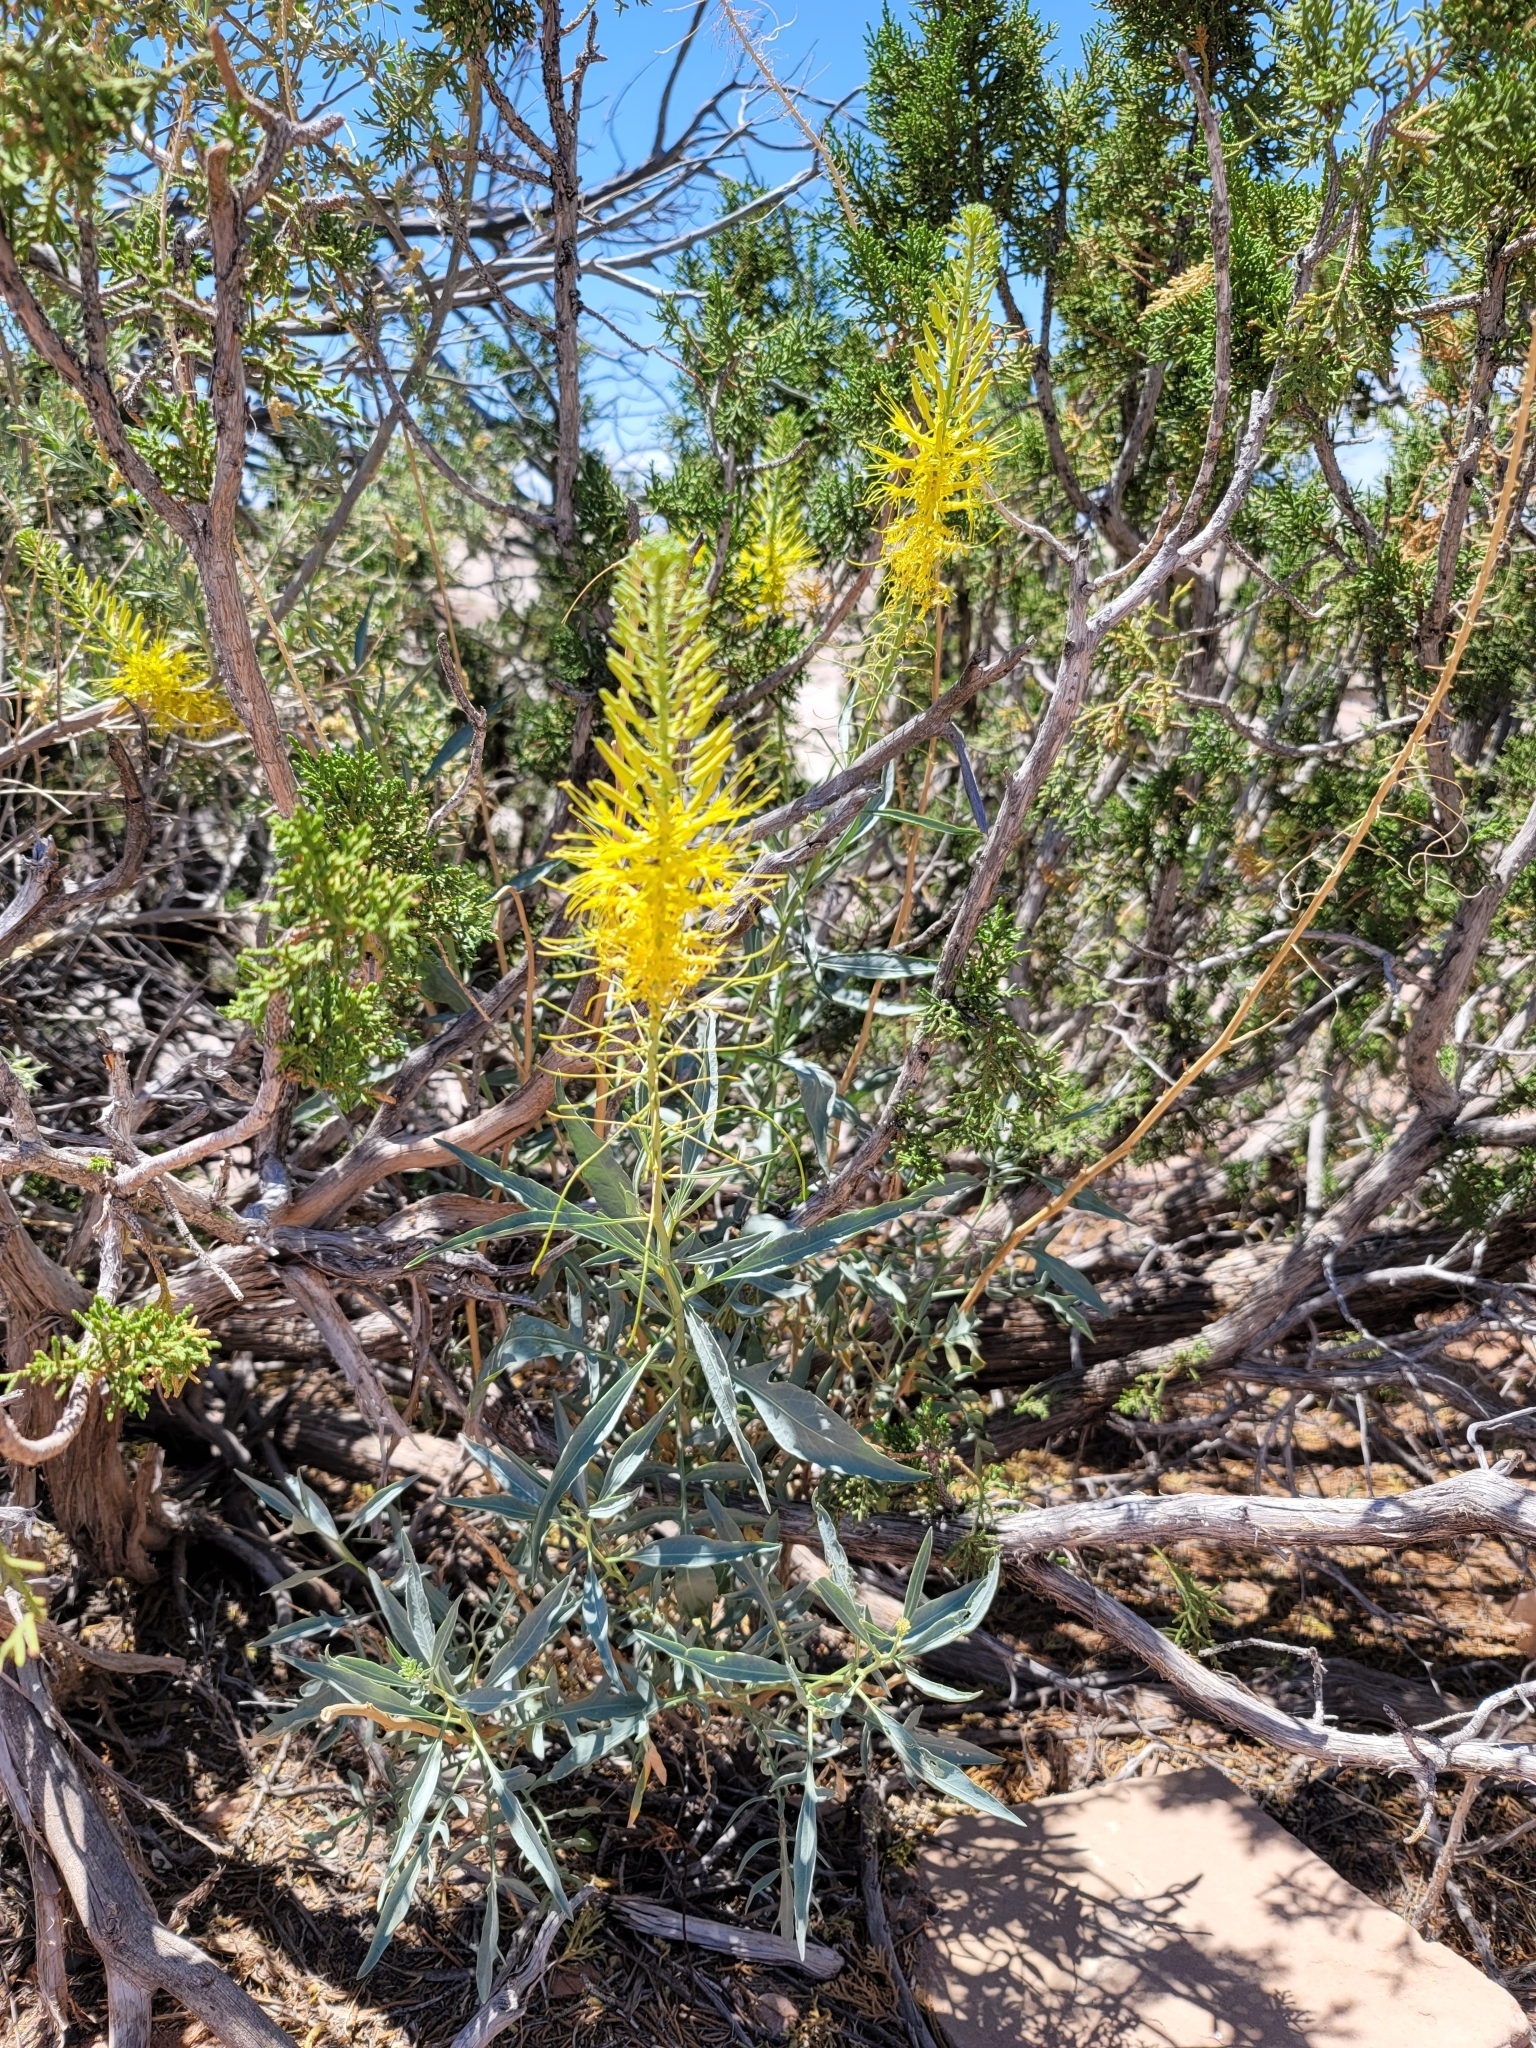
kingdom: Plantae
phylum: Tracheophyta
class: Magnoliopsida
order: Brassicales
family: Brassicaceae
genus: Stanleya
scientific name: Stanleya pinnata
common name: Prince's-plume
